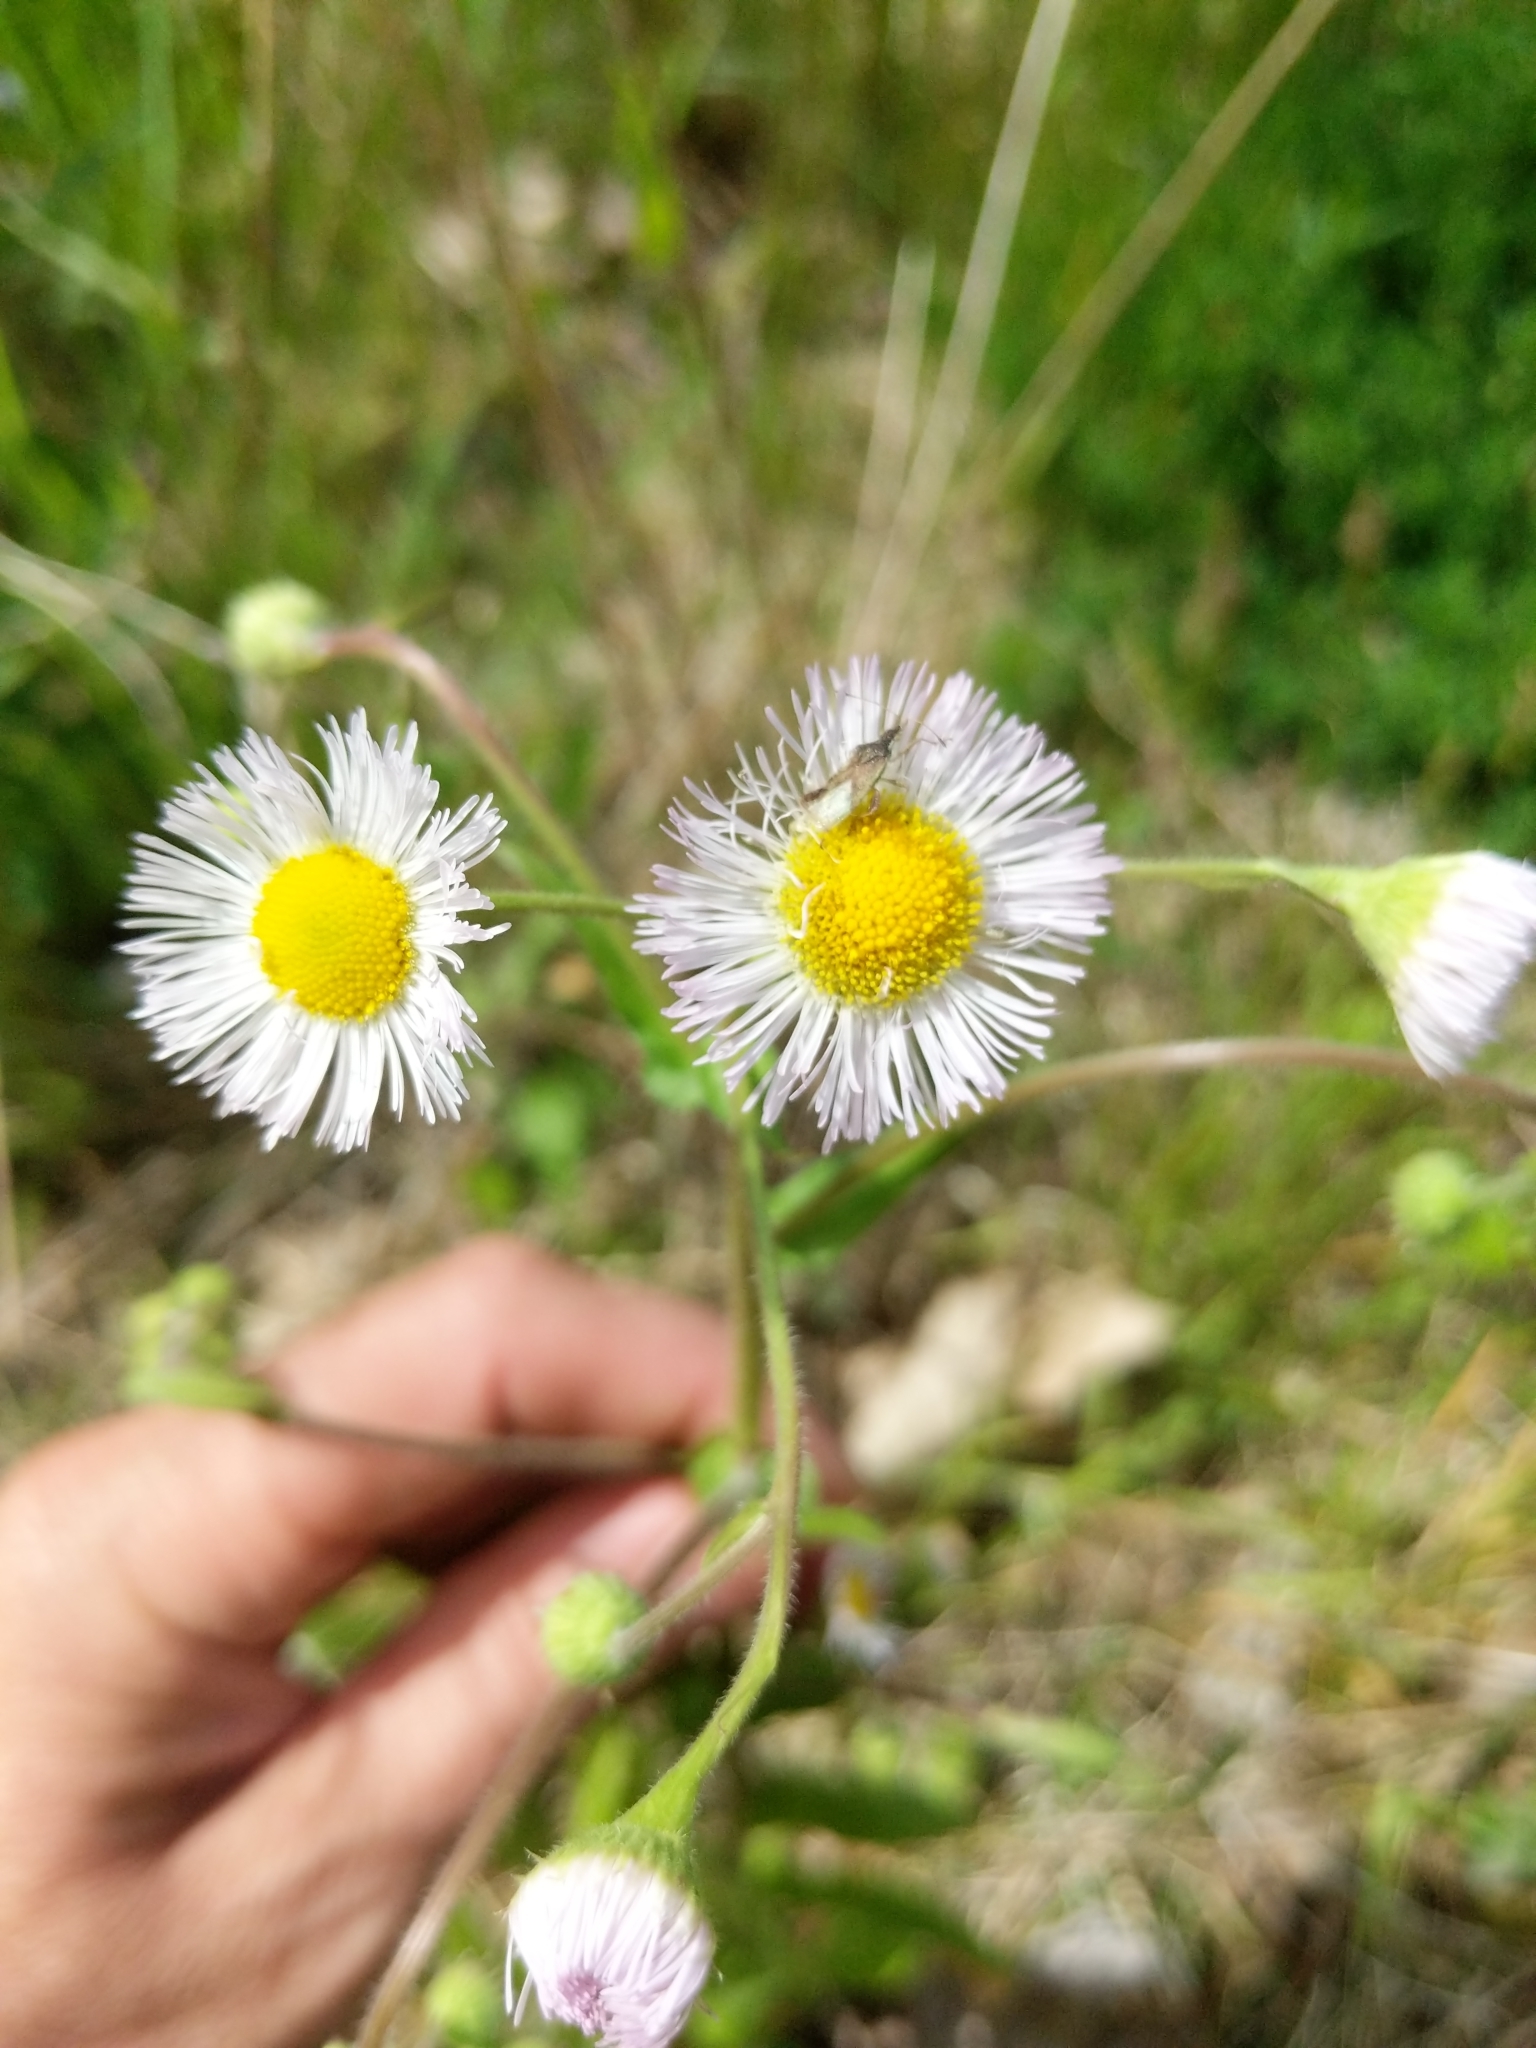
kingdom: Plantae
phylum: Tracheophyta
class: Magnoliopsida
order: Asterales
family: Asteraceae
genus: Erigeron
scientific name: Erigeron philadelphicus
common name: Robin's-plantain
